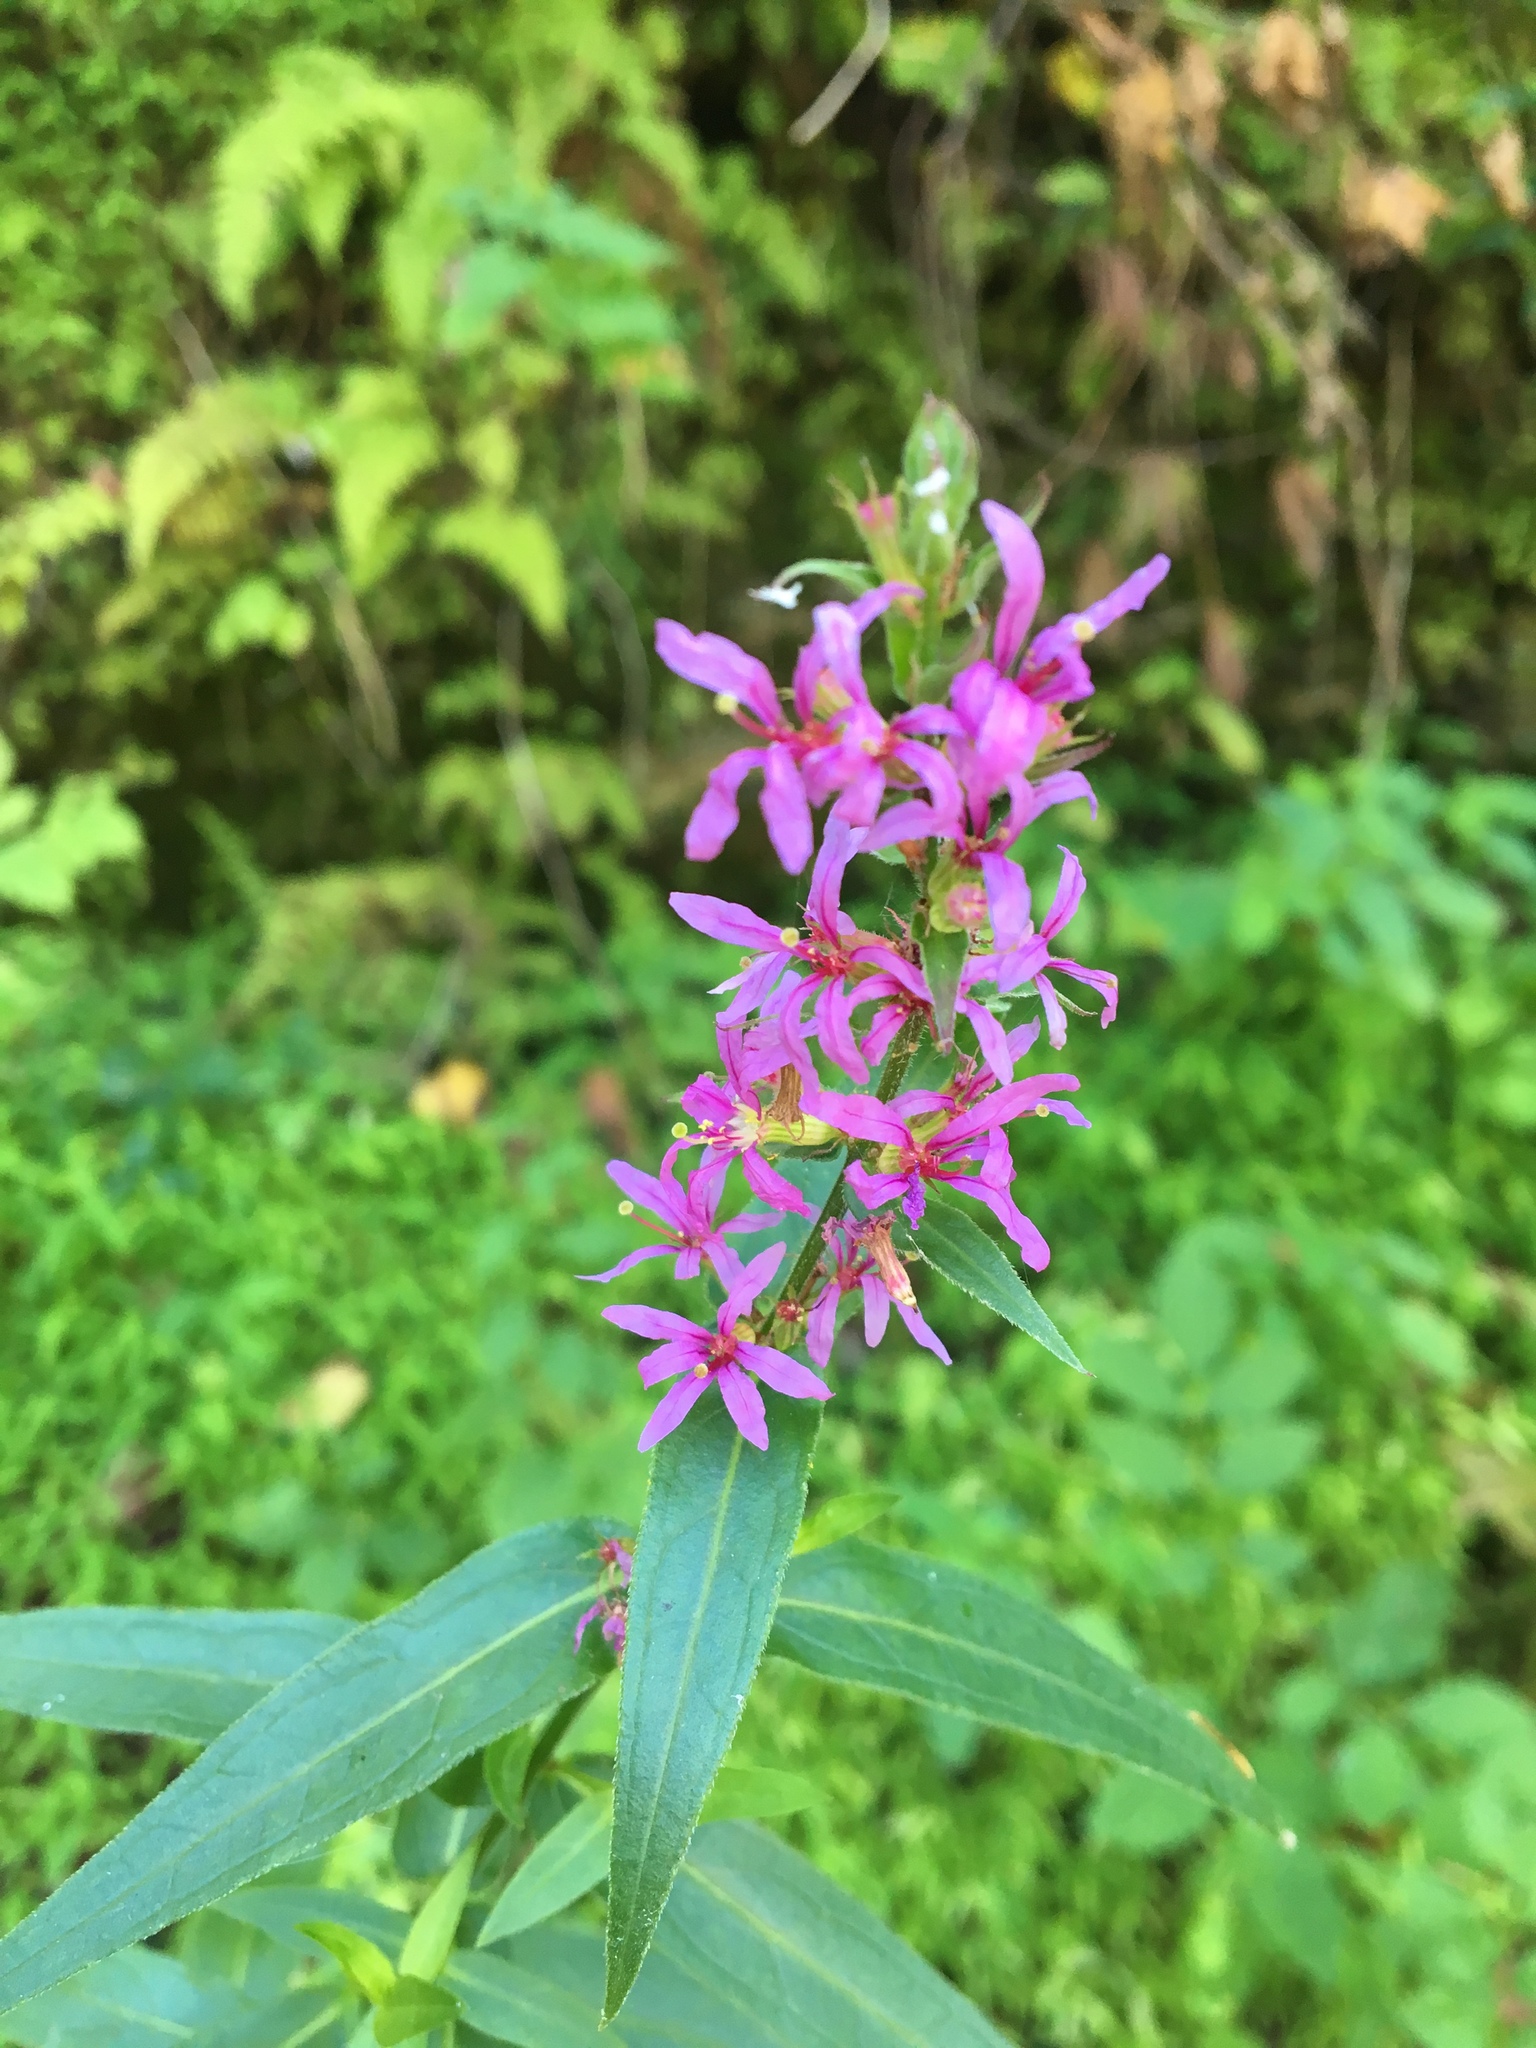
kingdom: Plantae
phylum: Tracheophyta
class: Magnoliopsida
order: Myrtales
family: Lythraceae
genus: Lythrum
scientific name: Lythrum salicaria
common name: Purple loosestrife
